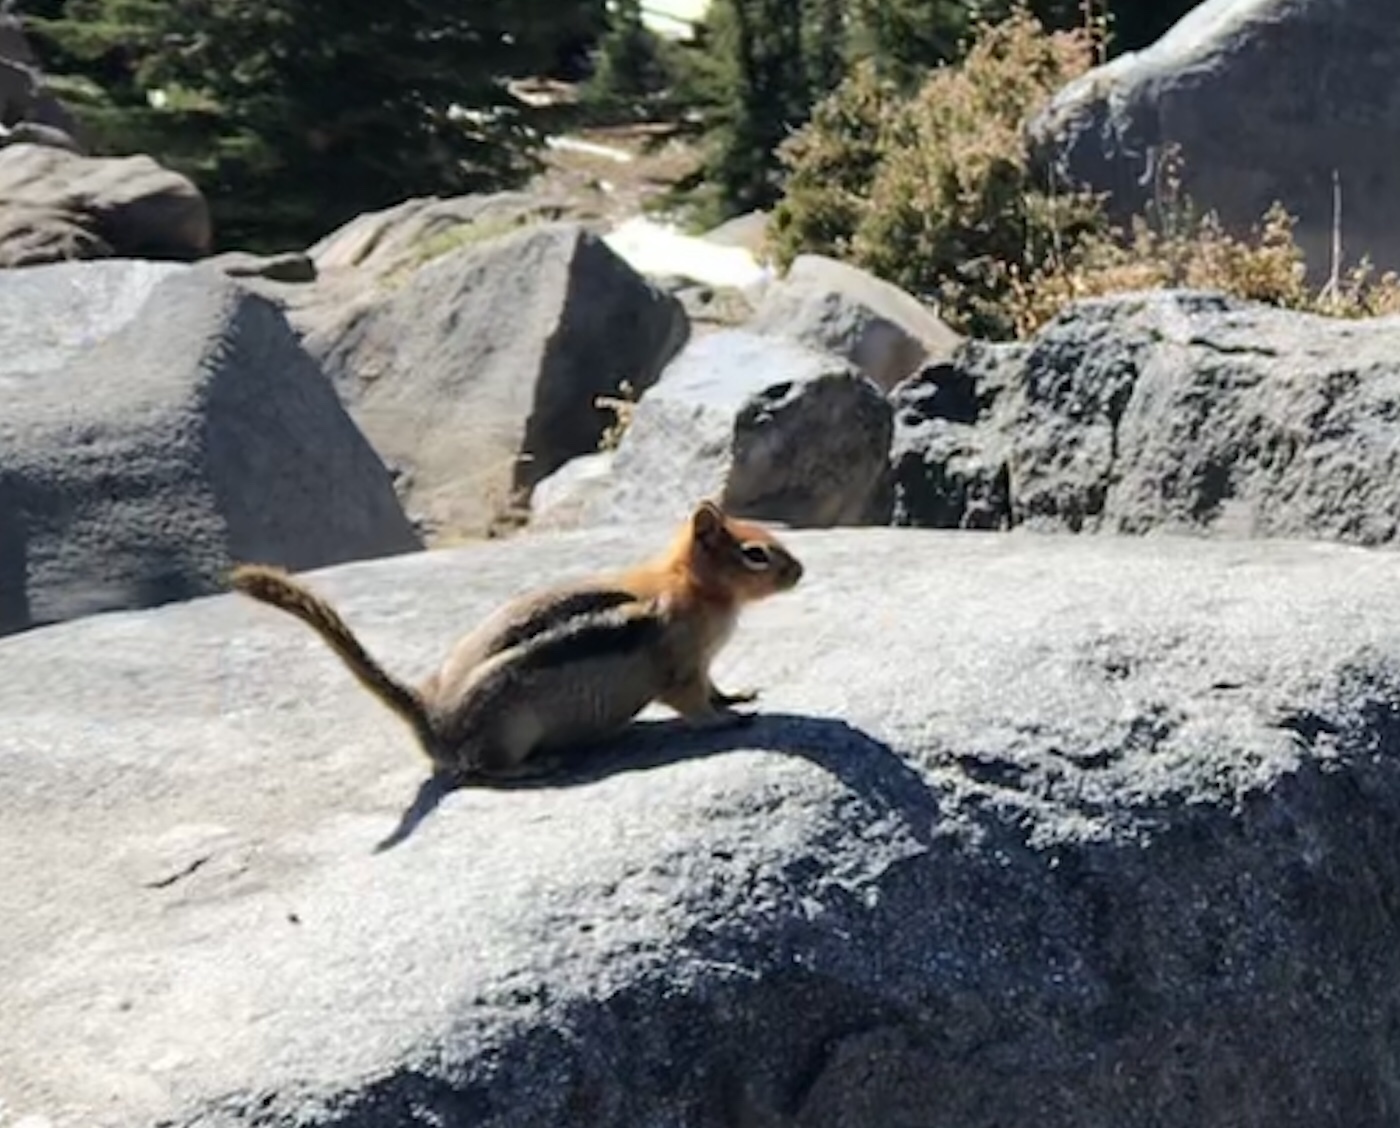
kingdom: Animalia
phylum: Chordata
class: Mammalia
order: Rodentia
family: Sciuridae
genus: Callospermophilus
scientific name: Callospermophilus lateralis
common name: Golden-mantled ground squirrel
